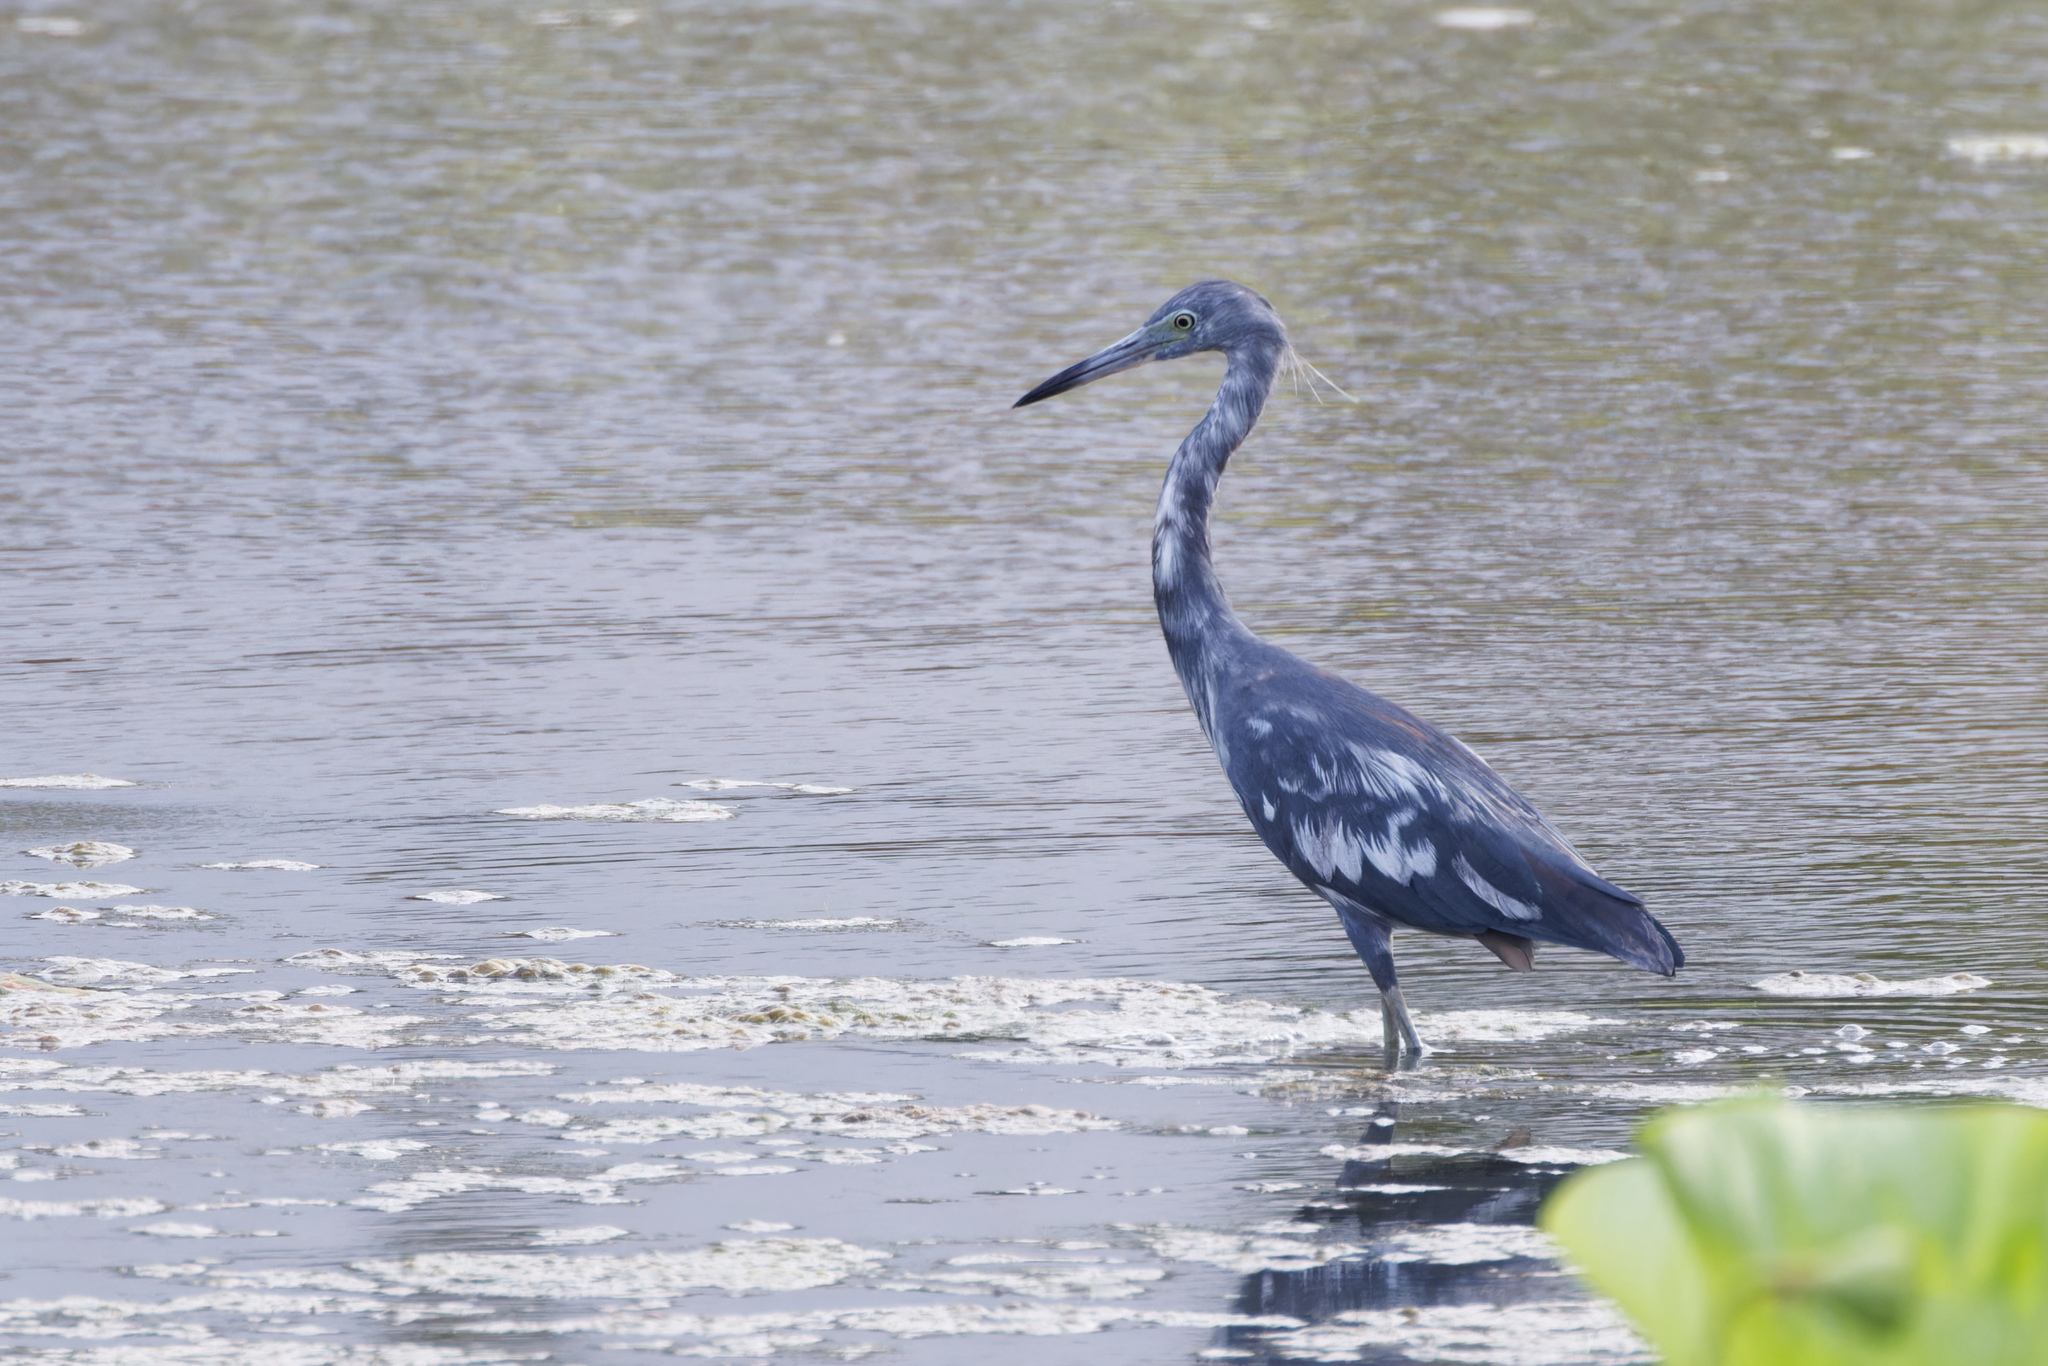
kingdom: Animalia
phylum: Chordata
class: Aves
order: Pelecaniformes
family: Ardeidae
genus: Egretta
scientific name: Egretta caerulea
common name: Little blue heron
